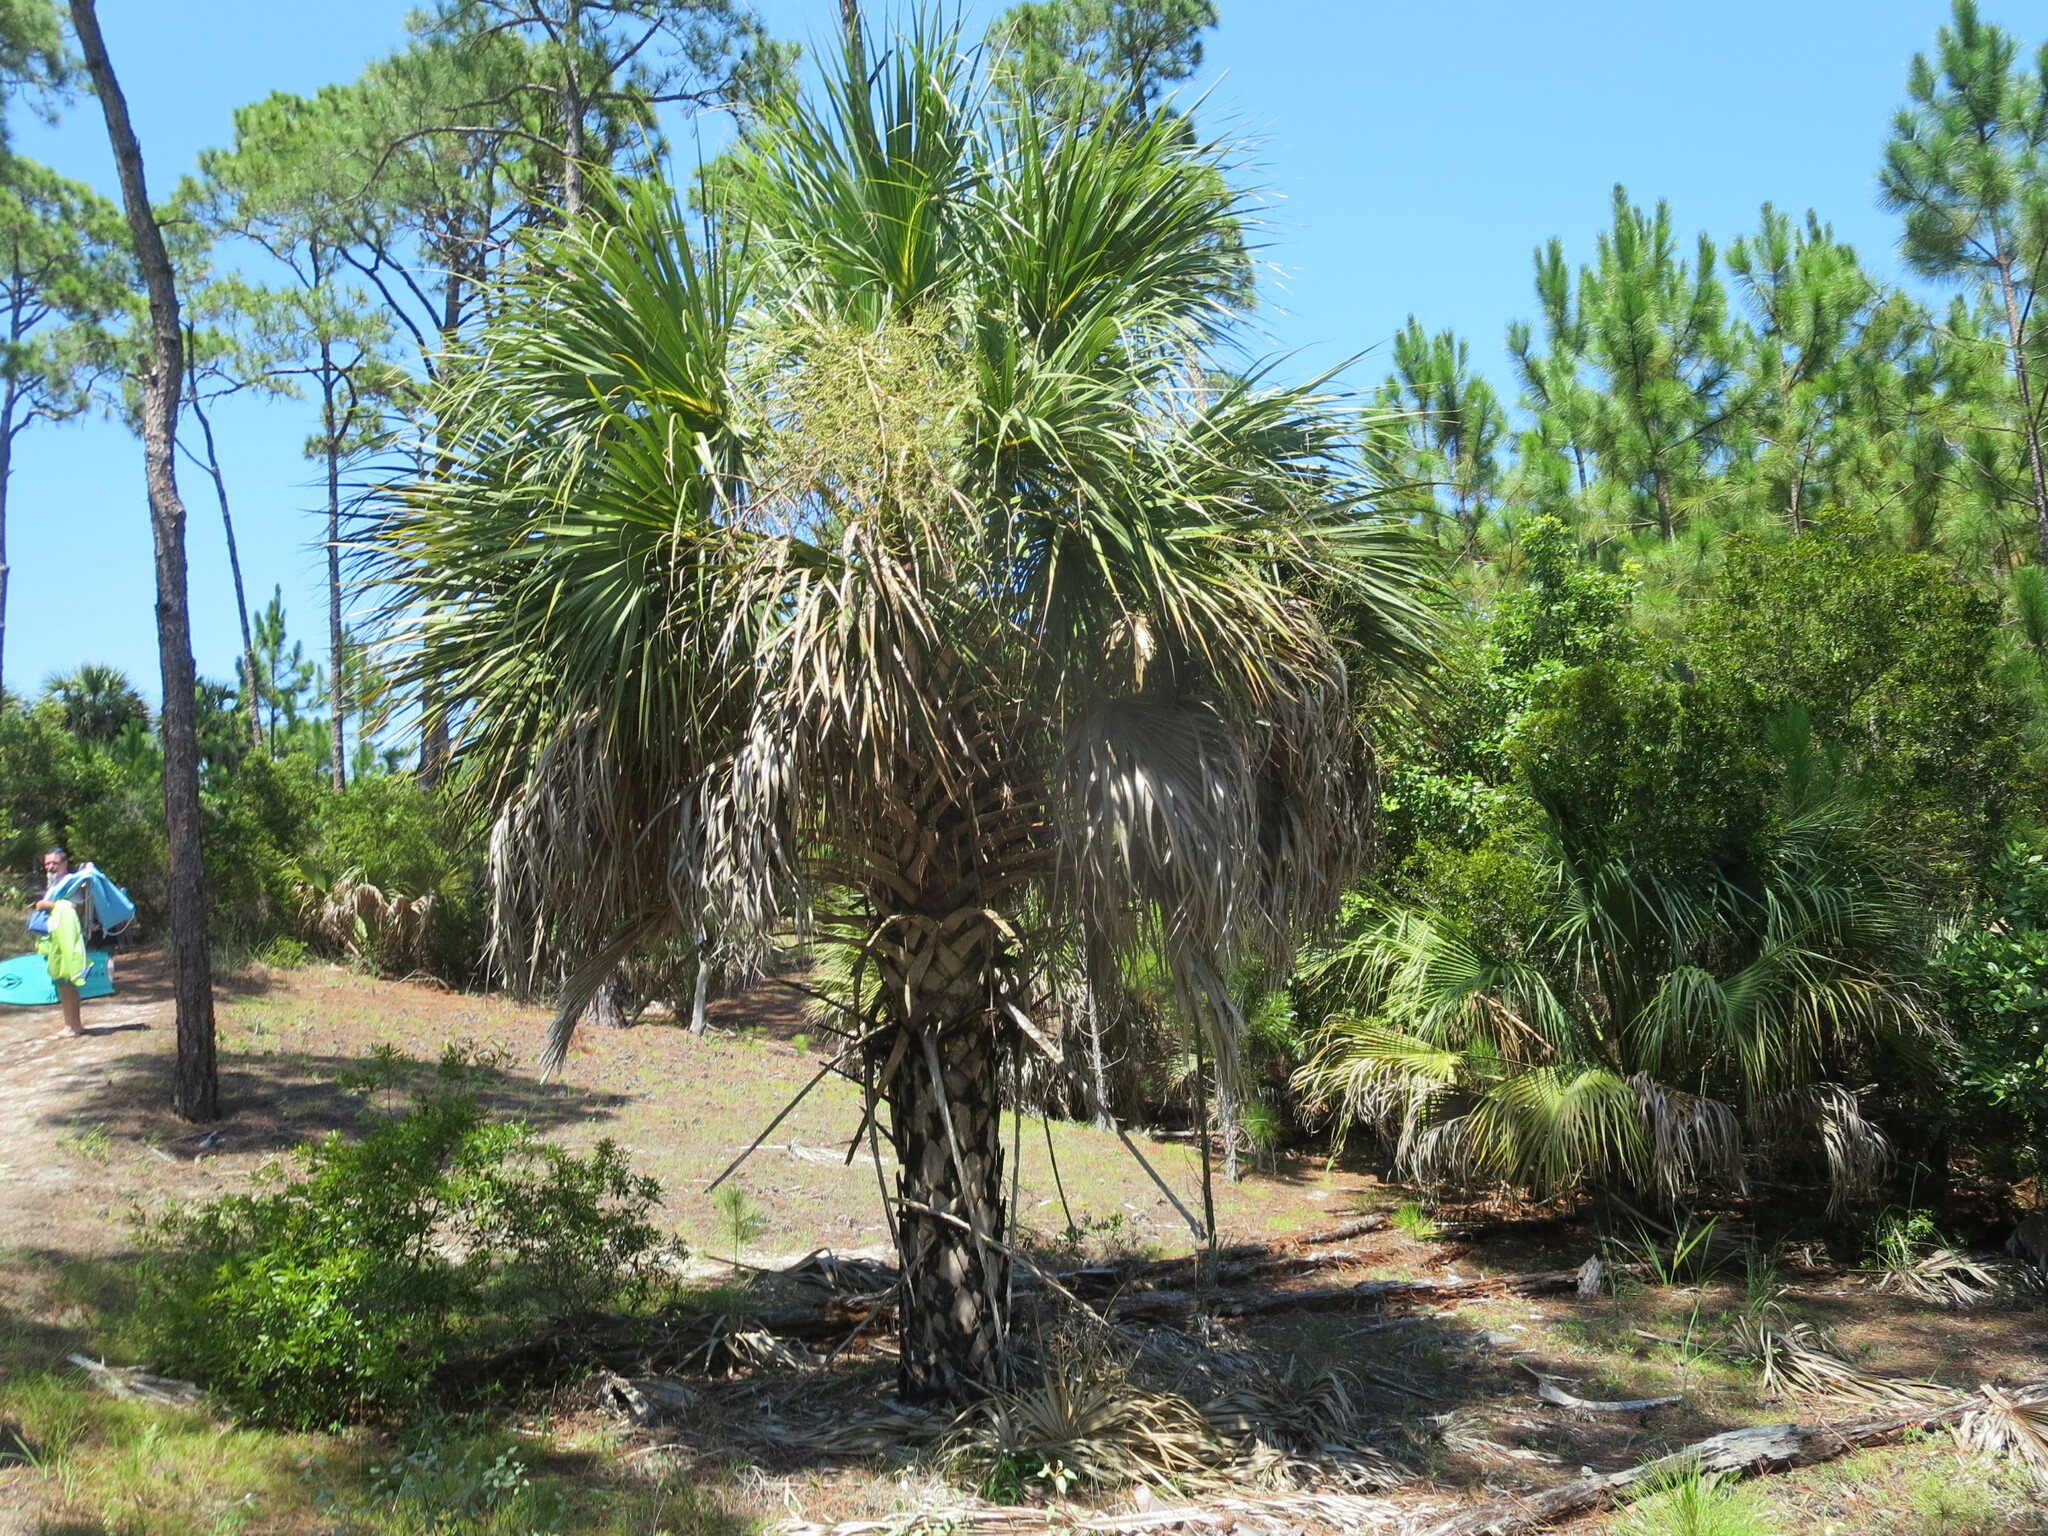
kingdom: Plantae
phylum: Tracheophyta
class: Liliopsida
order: Arecales
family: Arecaceae
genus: Sabal
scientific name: Sabal palmetto
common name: Blue palmetto
